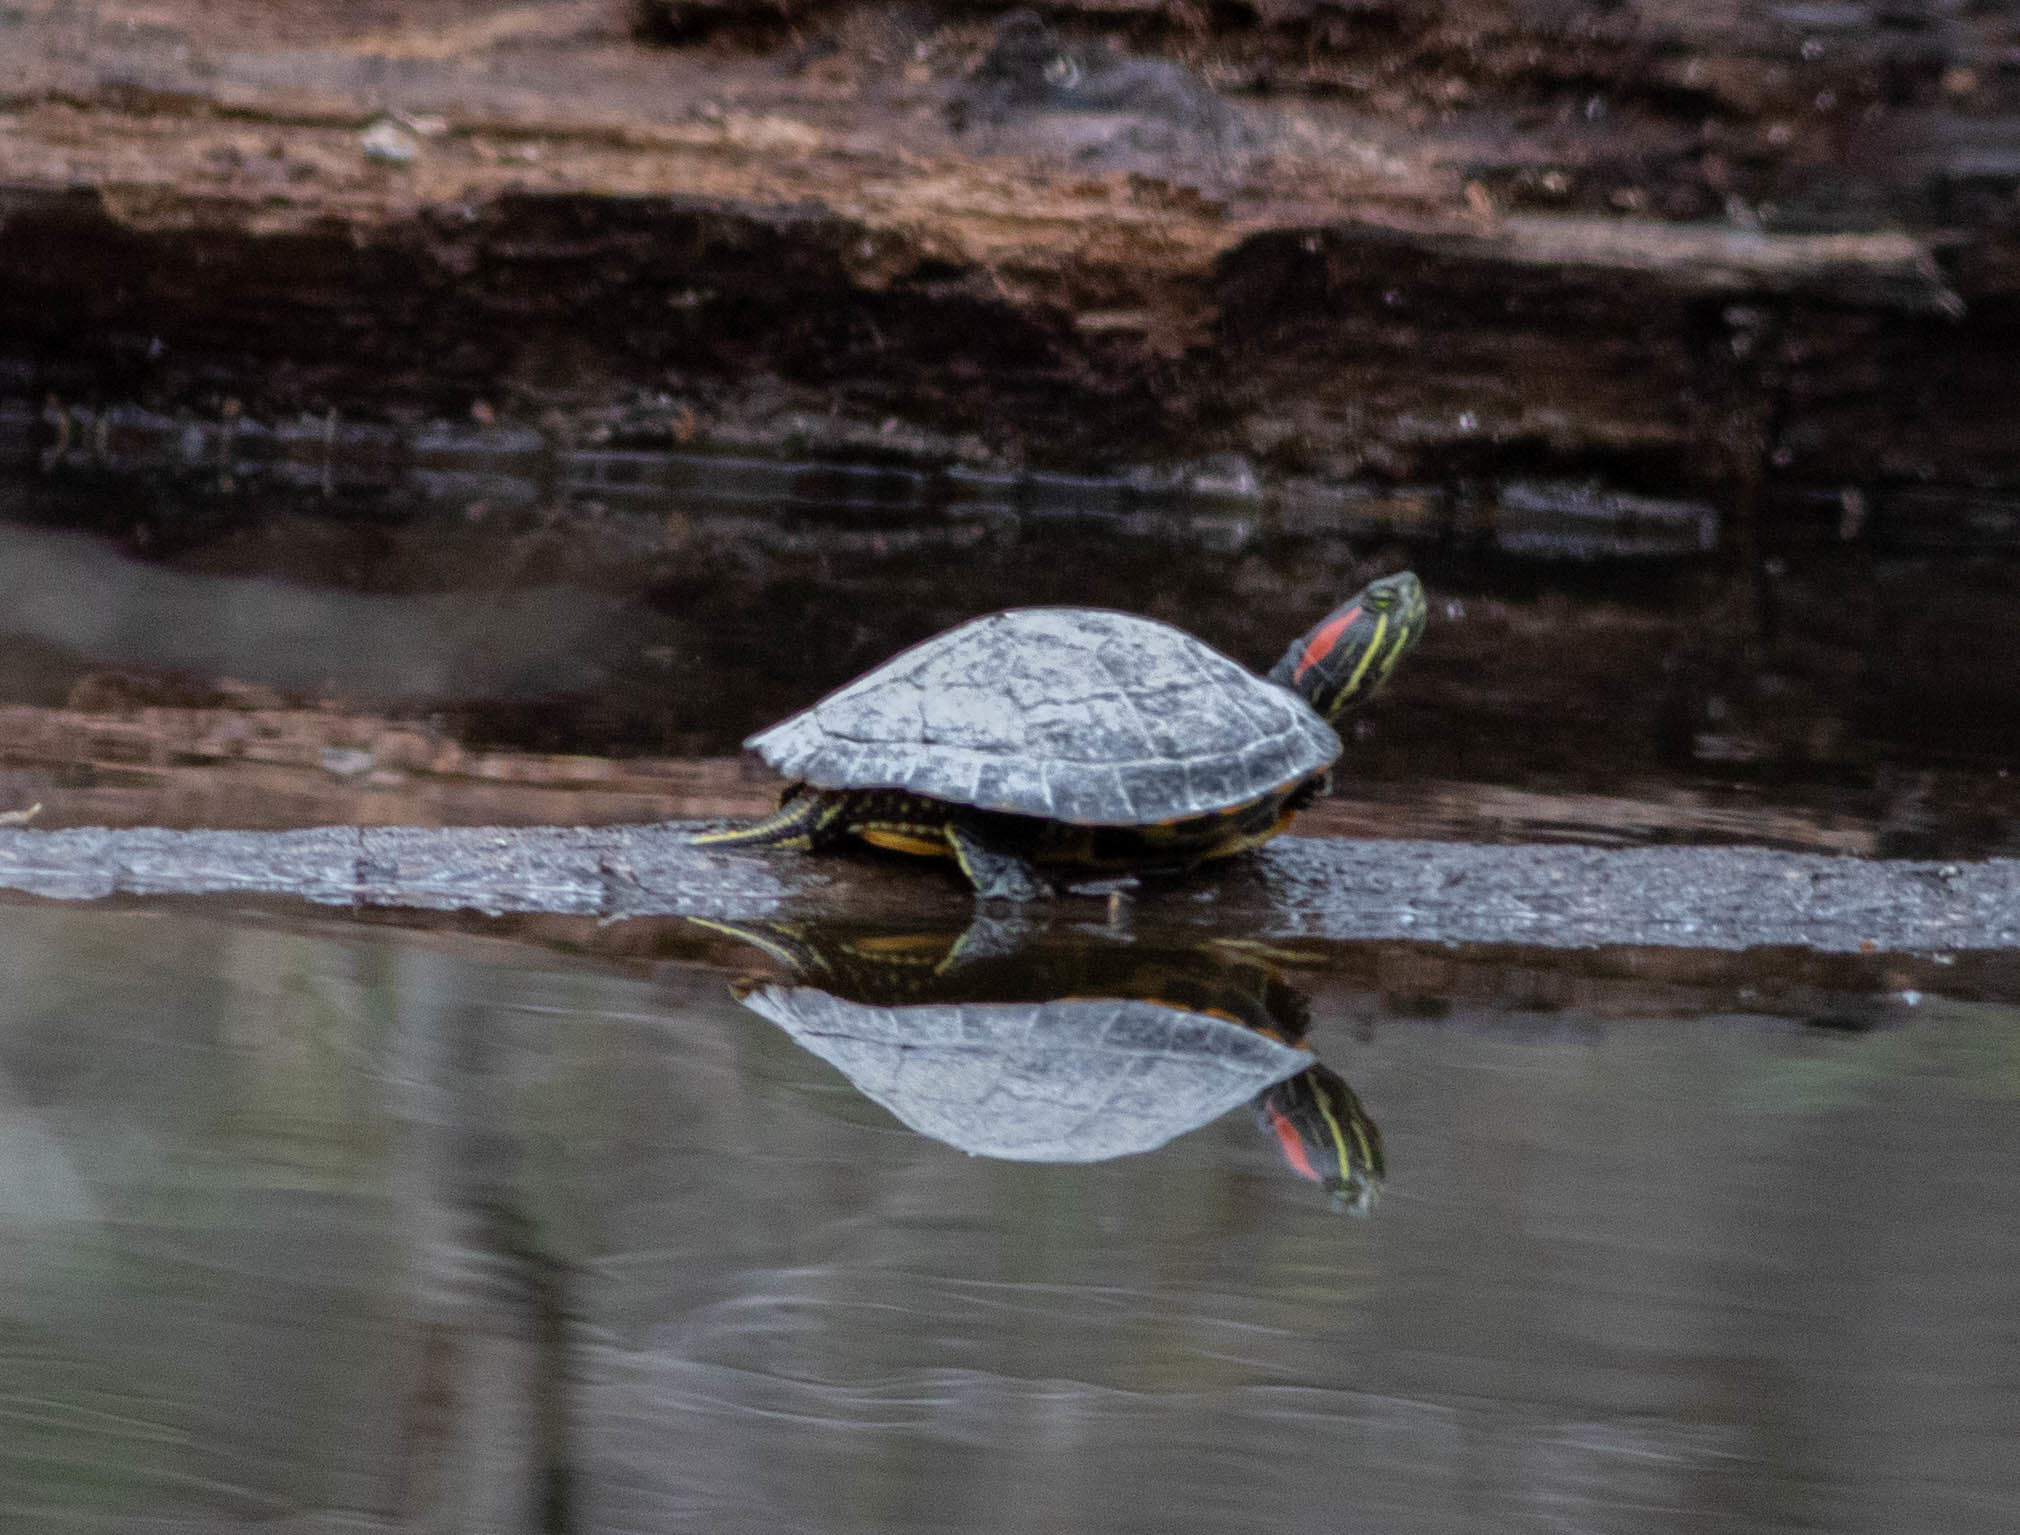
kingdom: Animalia
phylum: Chordata
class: Testudines
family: Emydidae
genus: Trachemys
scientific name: Trachemys scripta
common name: Slider
